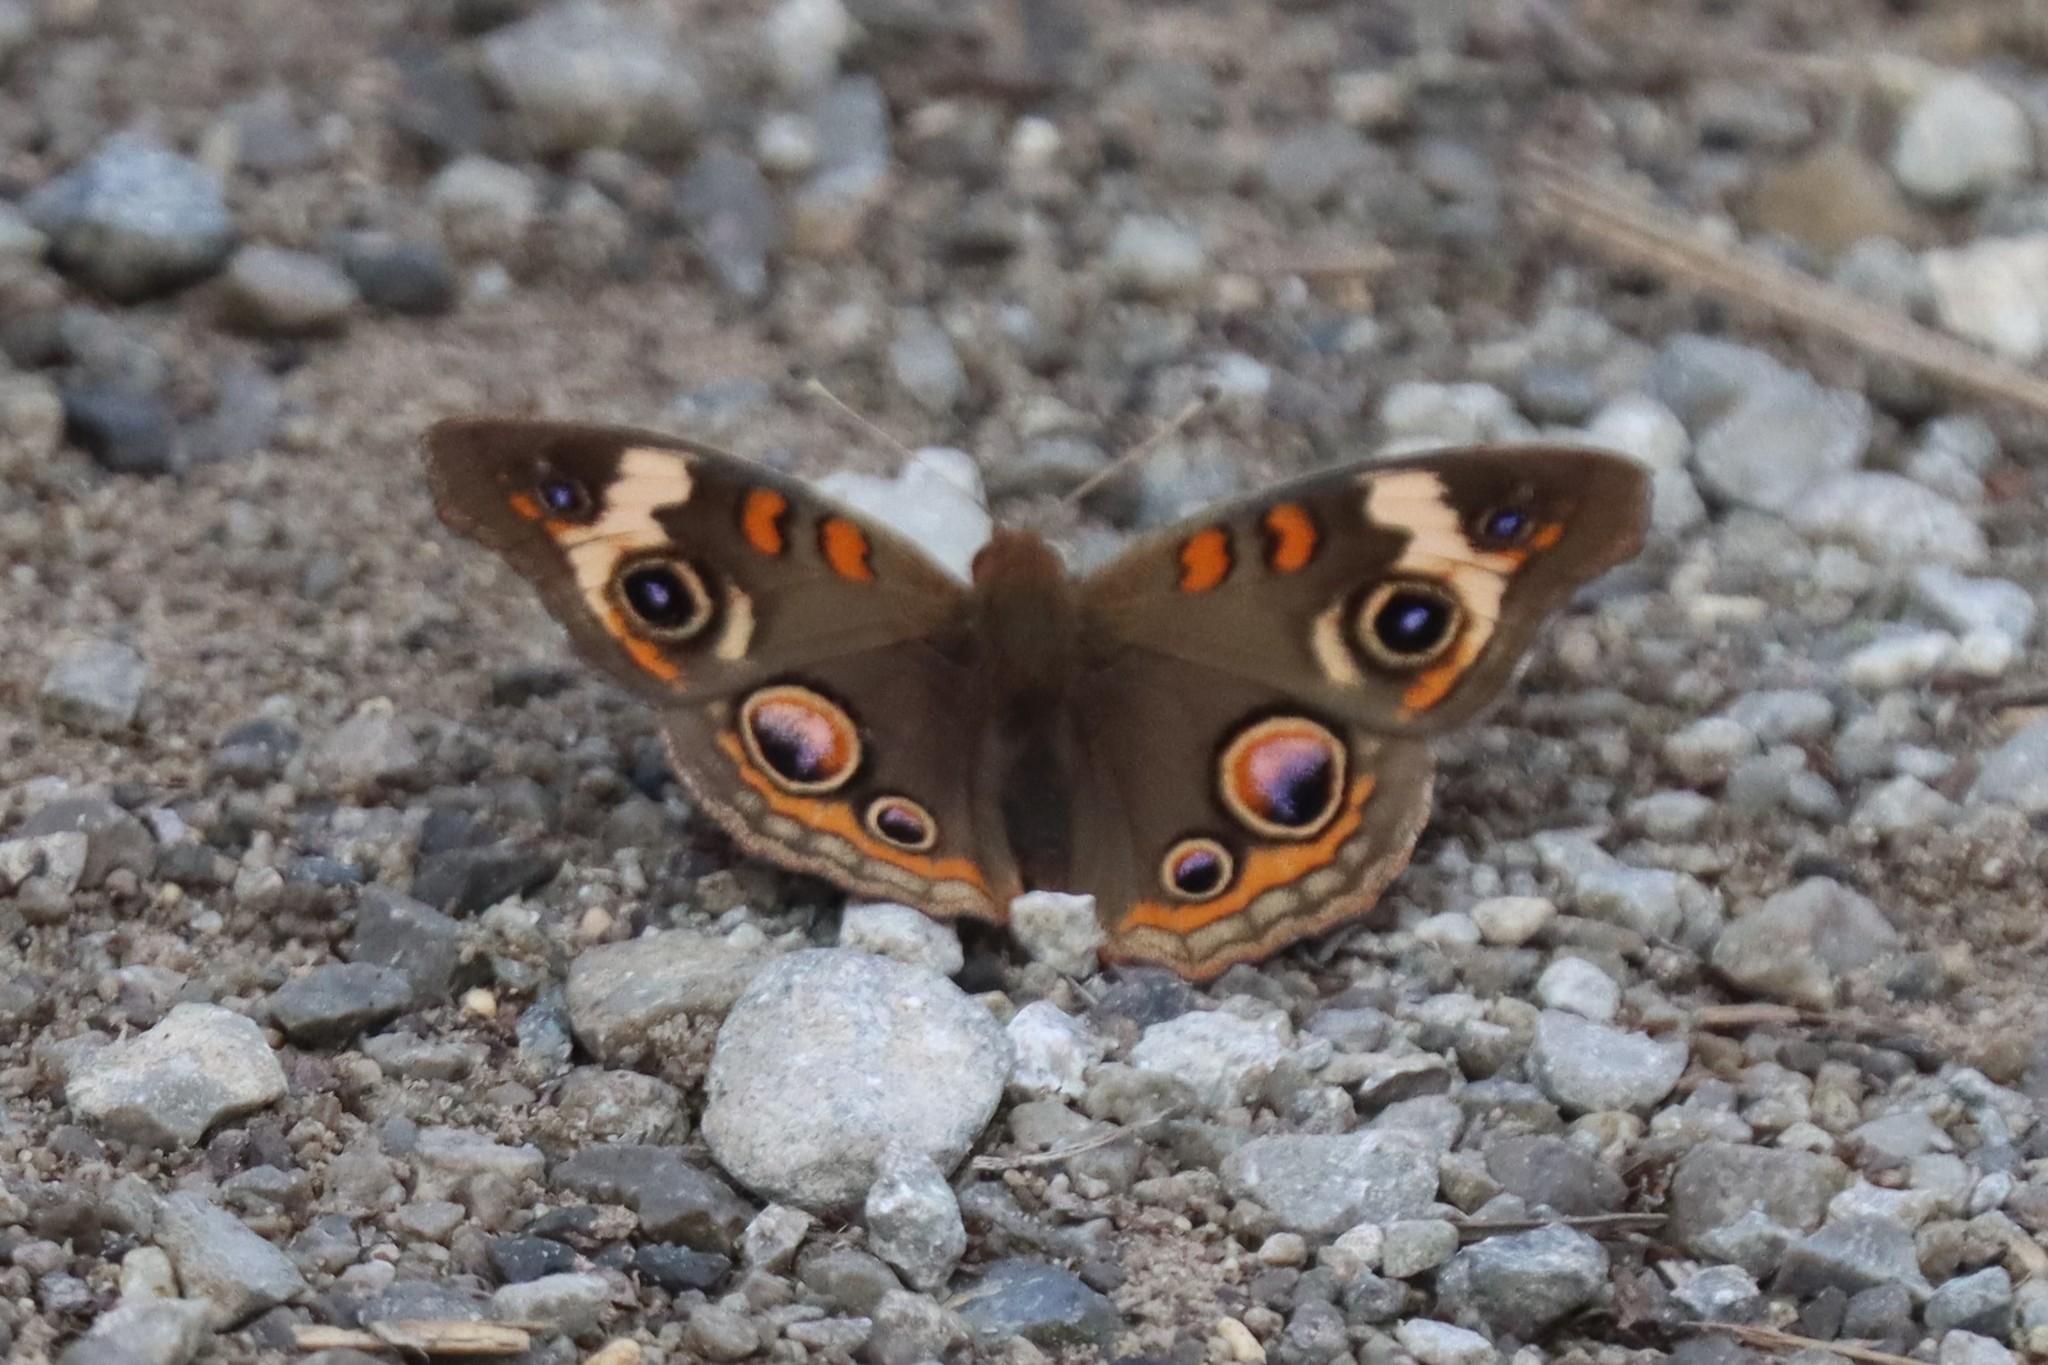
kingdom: Animalia
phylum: Arthropoda
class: Insecta
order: Lepidoptera
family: Nymphalidae
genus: Junonia
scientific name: Junonia coenia
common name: Common buckeye
